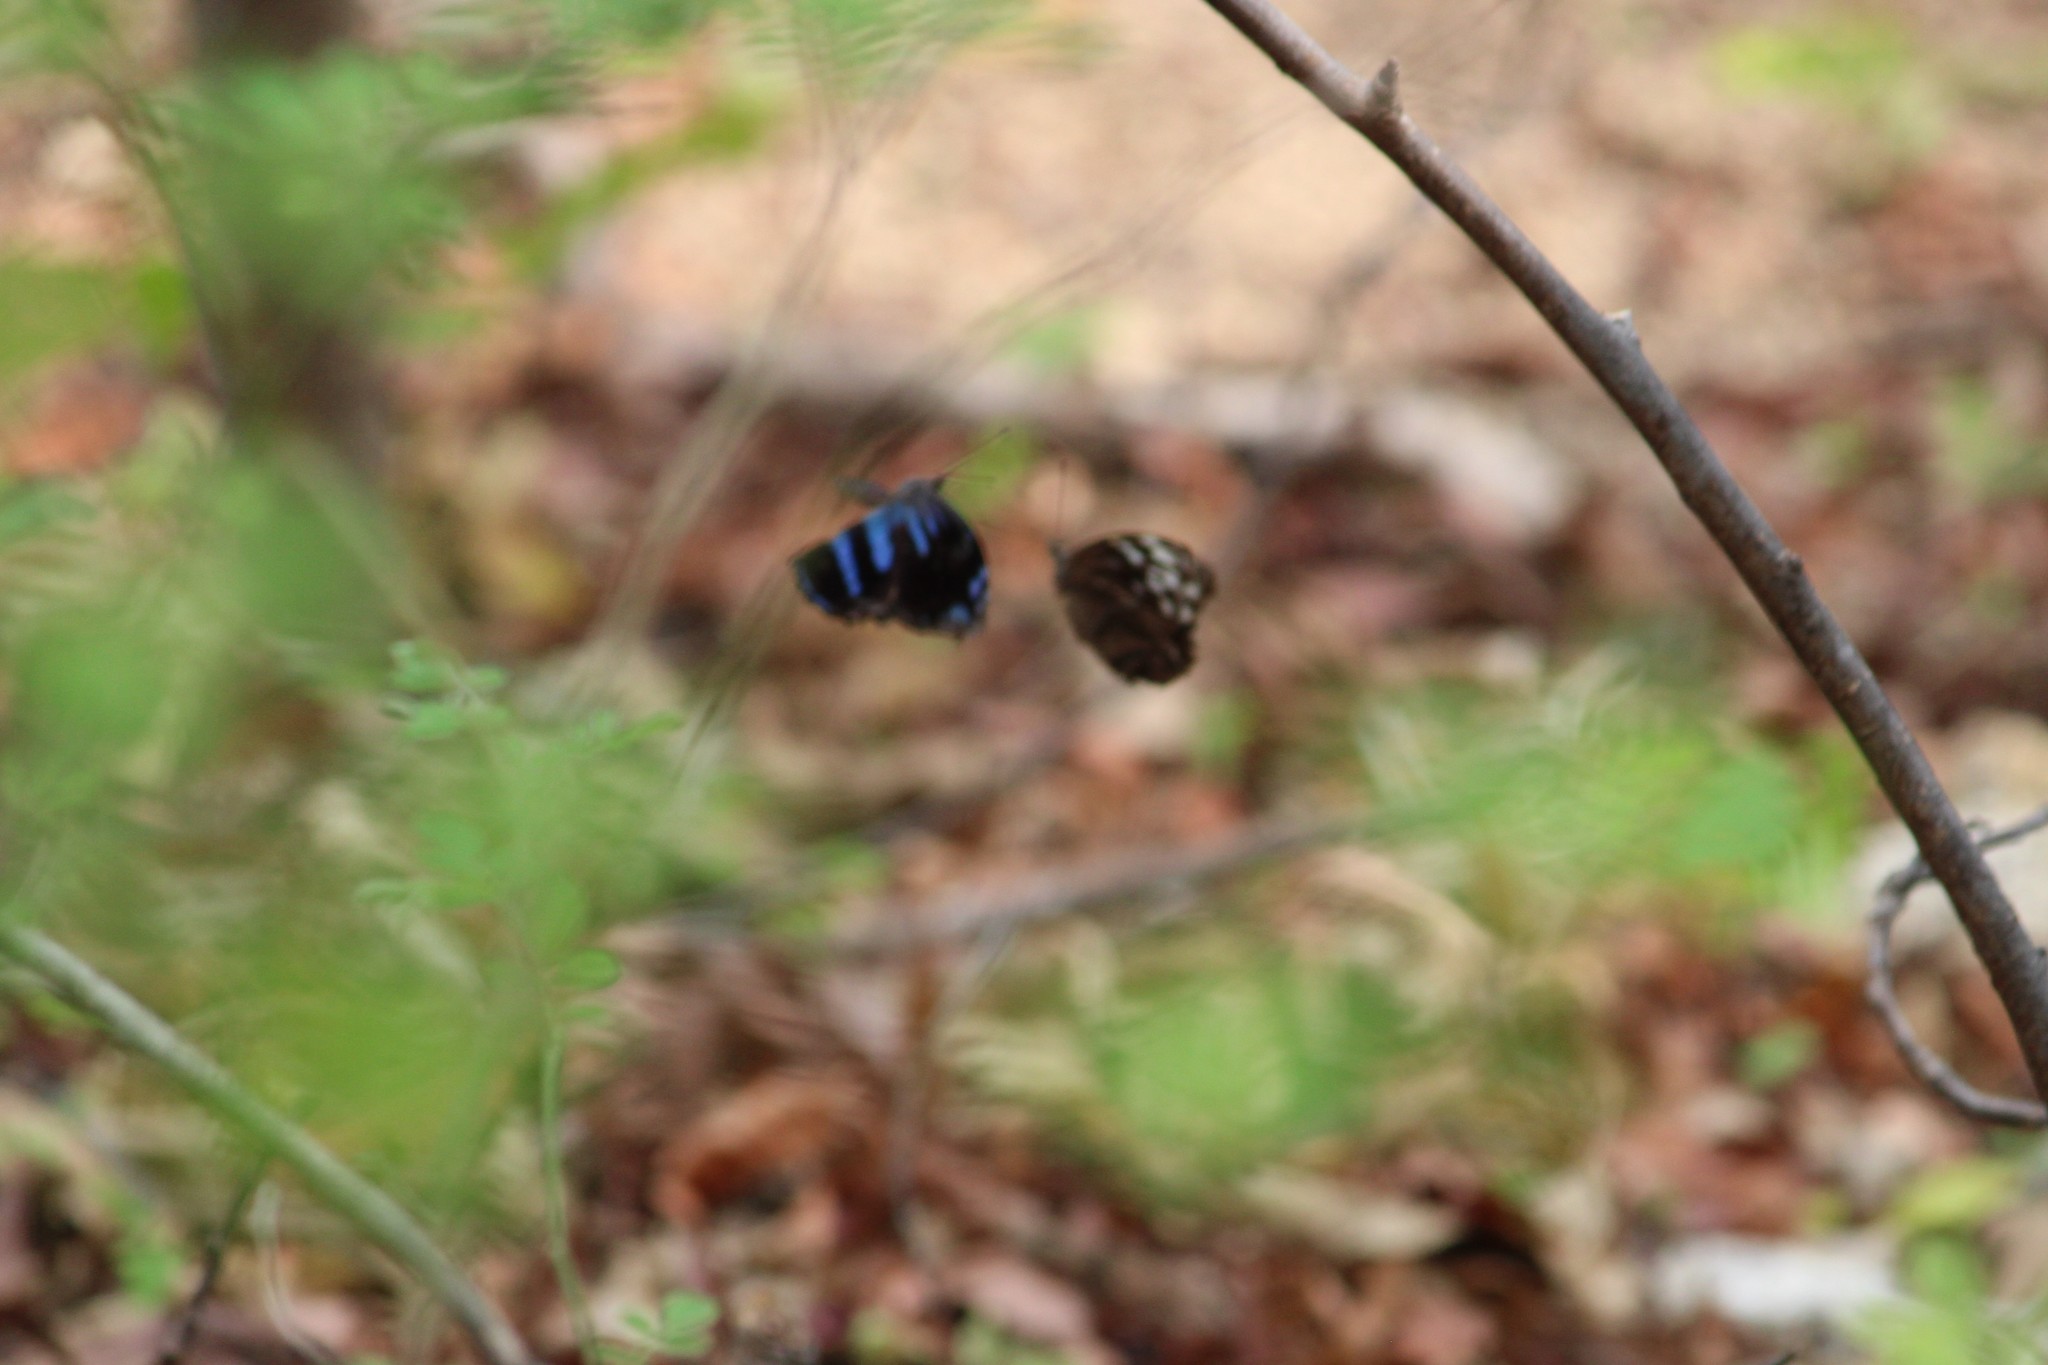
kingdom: Animalia
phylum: Arthropoda
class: Insecta
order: Lepidoptera
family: Nymphalidae
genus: Myscelia
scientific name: Myscelia cyananthe
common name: Blackened bluewing
